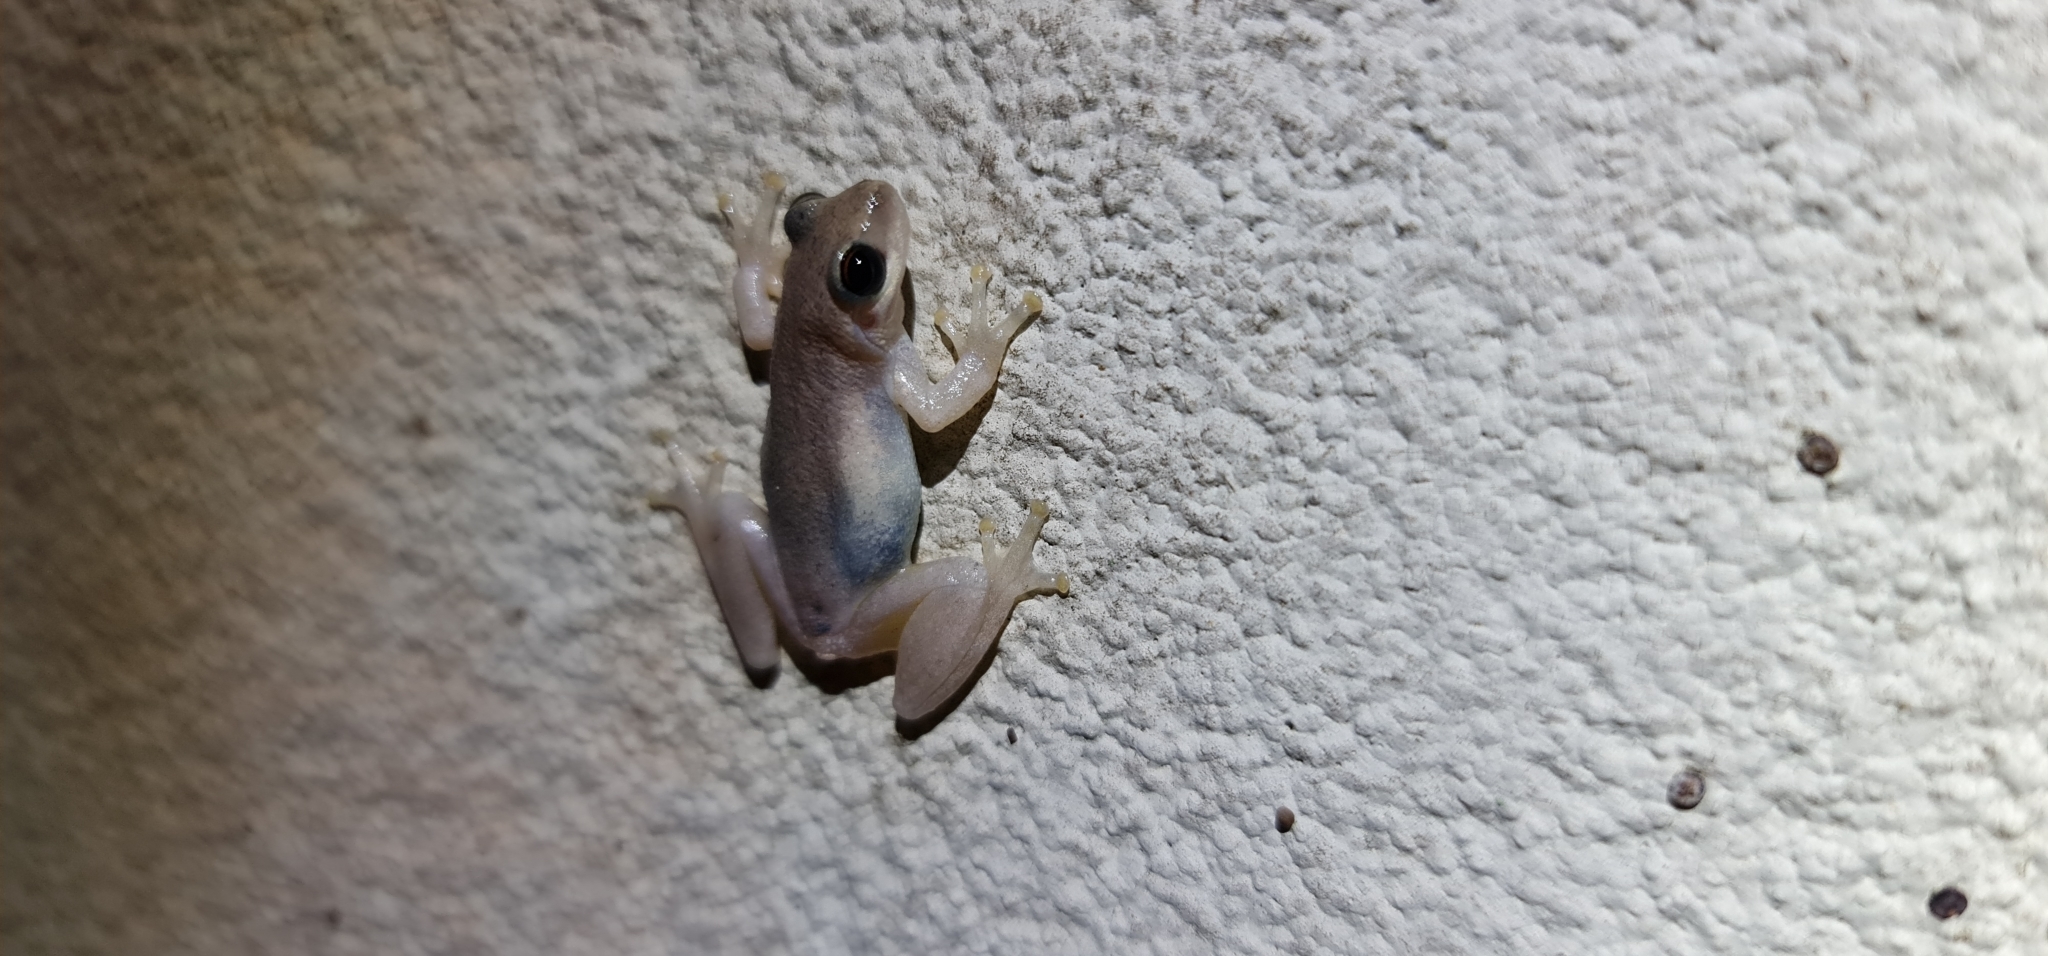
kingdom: Animalia
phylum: Chordata
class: Amphibia
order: Anura
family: Pelodryadidae
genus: Litoria
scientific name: Litoria rubella
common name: Desert tree frog
